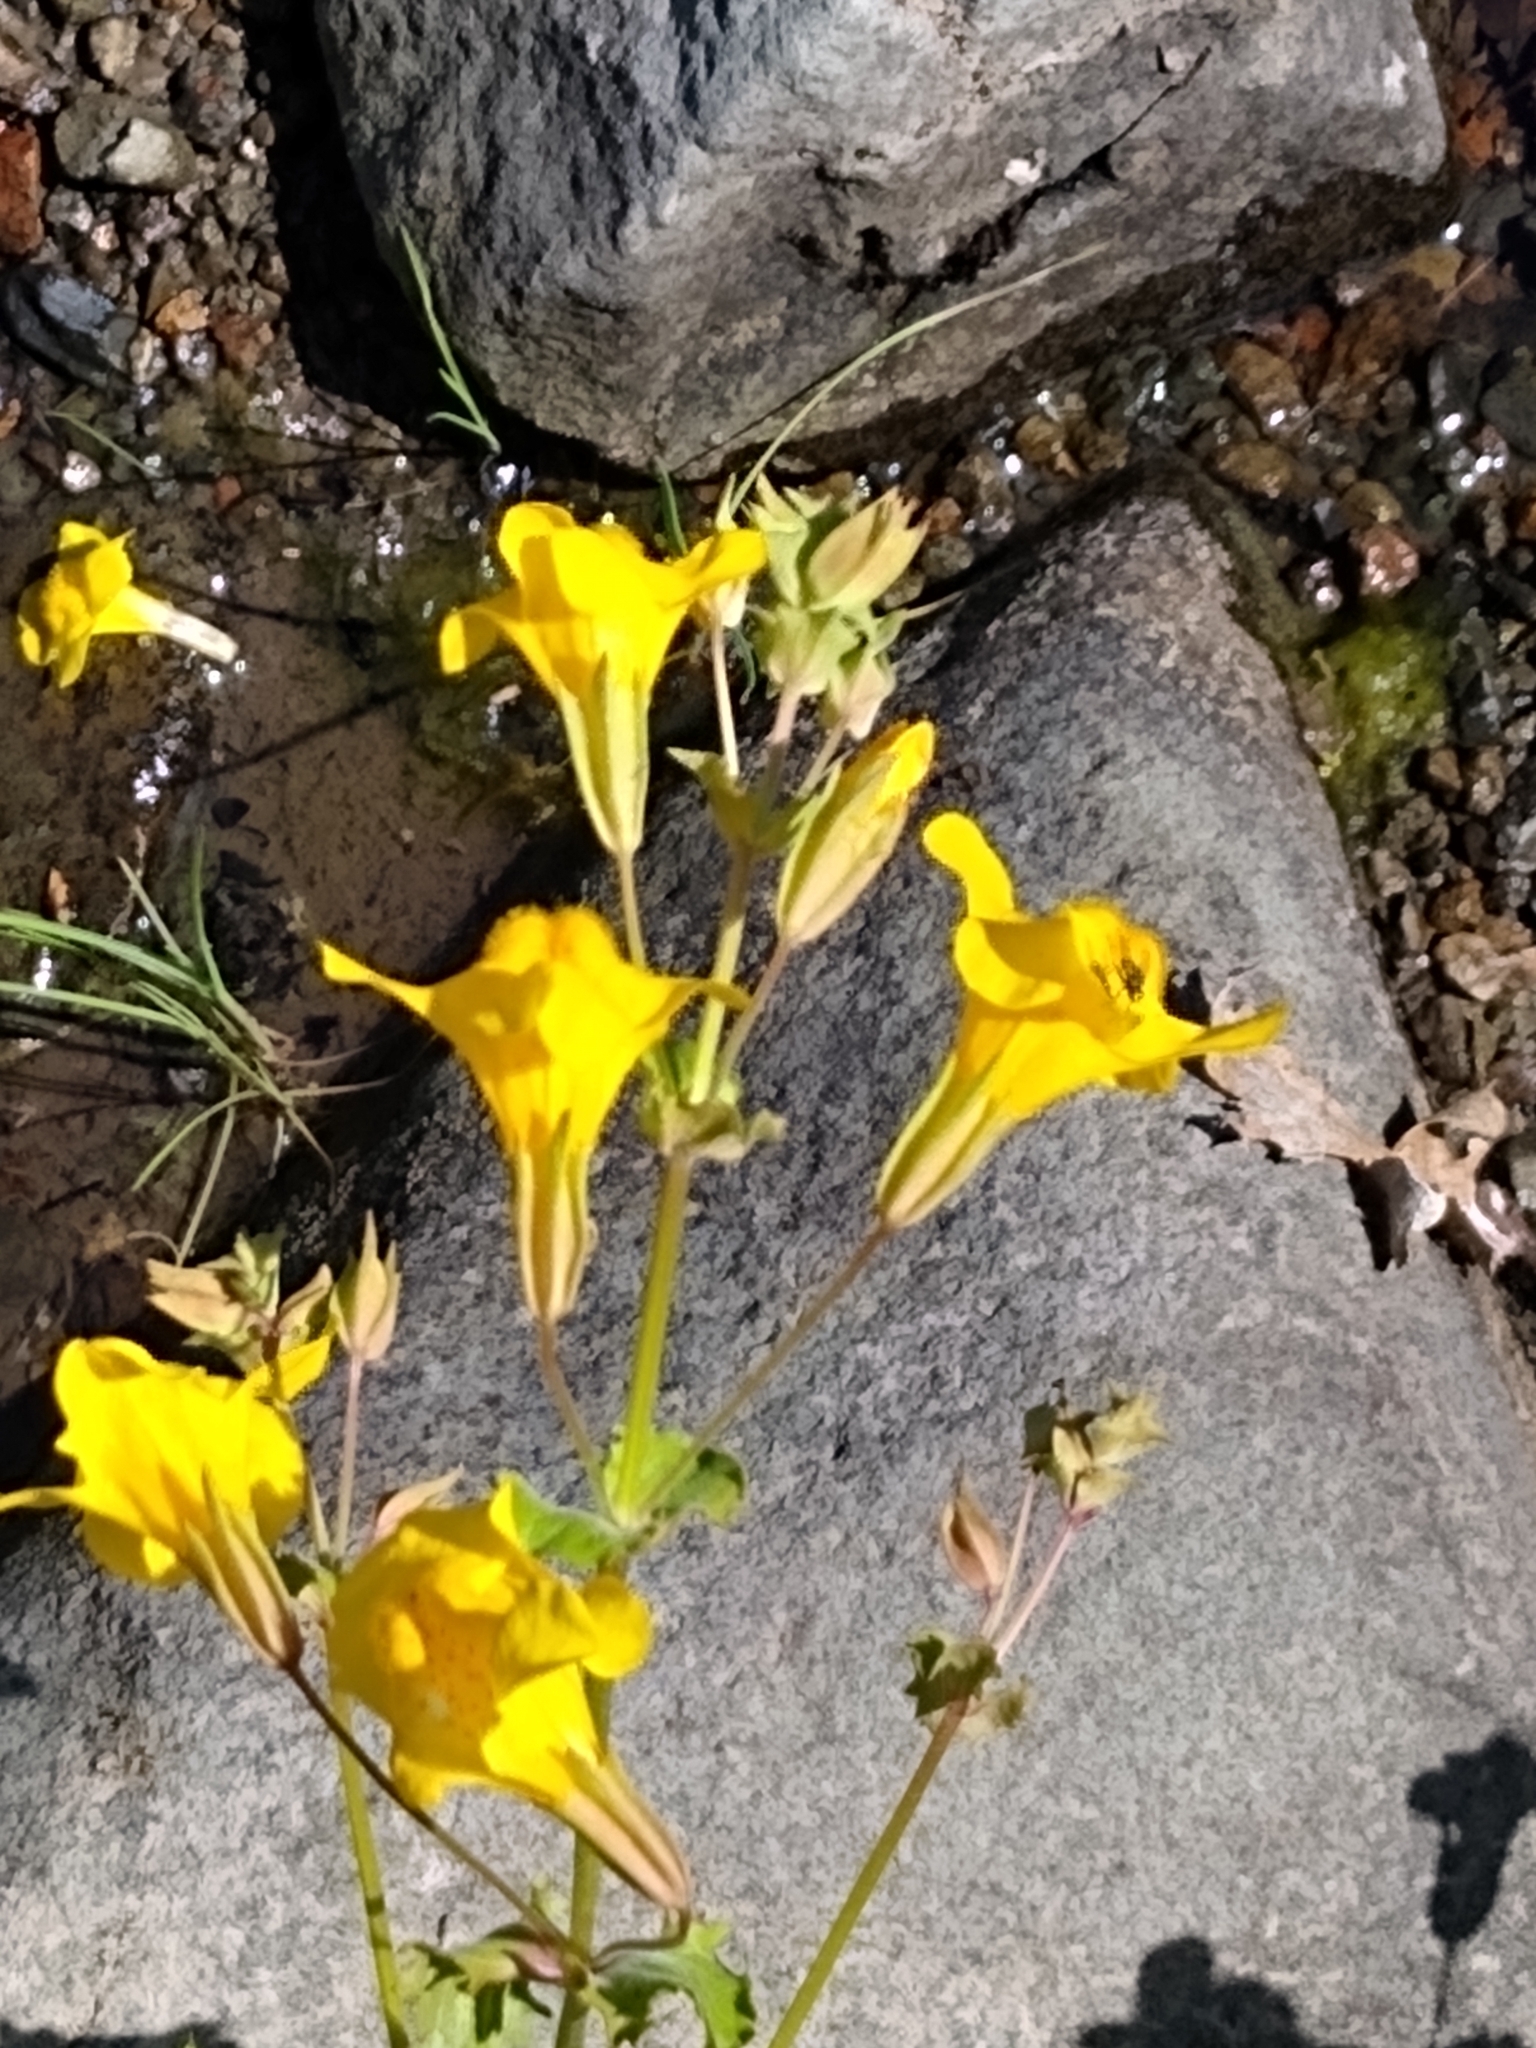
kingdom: Plantae
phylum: Tracheophyta
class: Magnoliopsida
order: Lamiales
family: Phrymaceae
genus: Erythranthe
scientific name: Erythranthe guttata
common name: Monkeyflower
